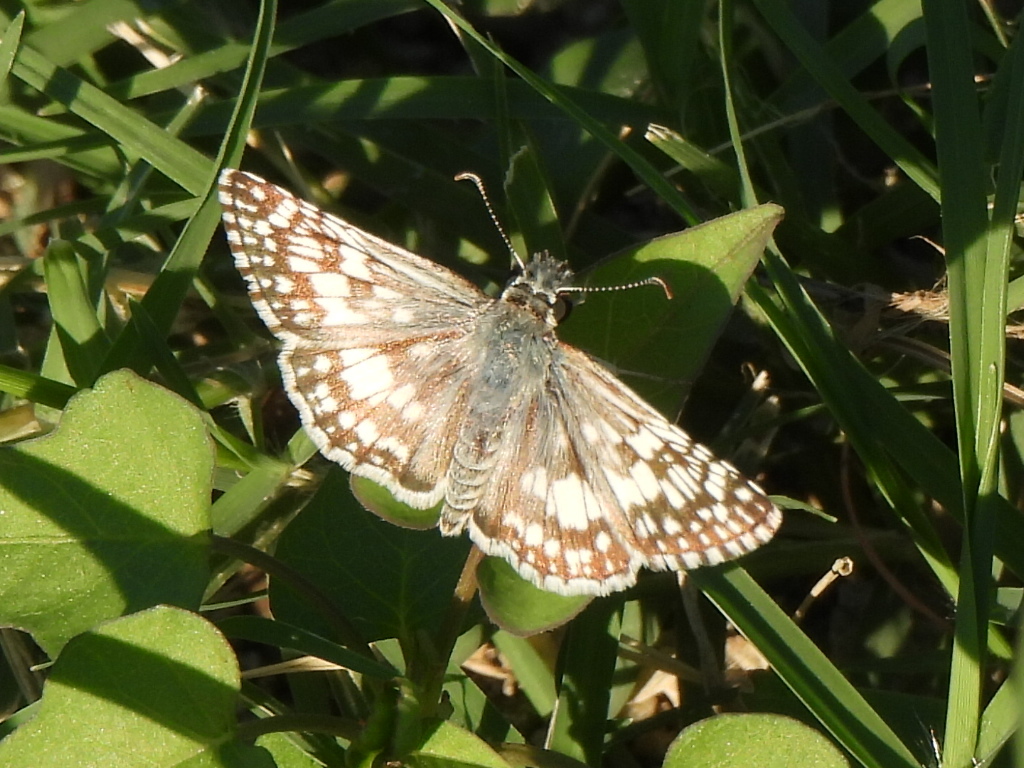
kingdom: Animalia
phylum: Arthropoda
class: Insecta
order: Lepidoptera
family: Hesperiidae
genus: Burnsius
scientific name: Burnsius
